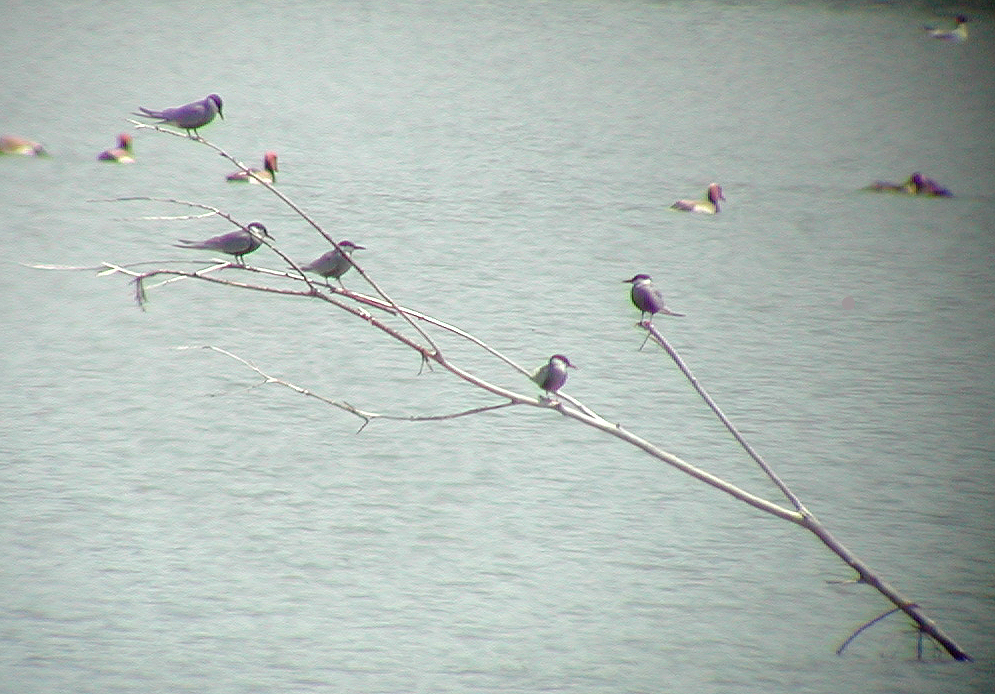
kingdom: Animalia
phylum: Chordata
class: Aves
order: Charadriiformes
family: Laridae
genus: Chlidonias
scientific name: Chlidonias hybrida
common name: Whiskered tern
